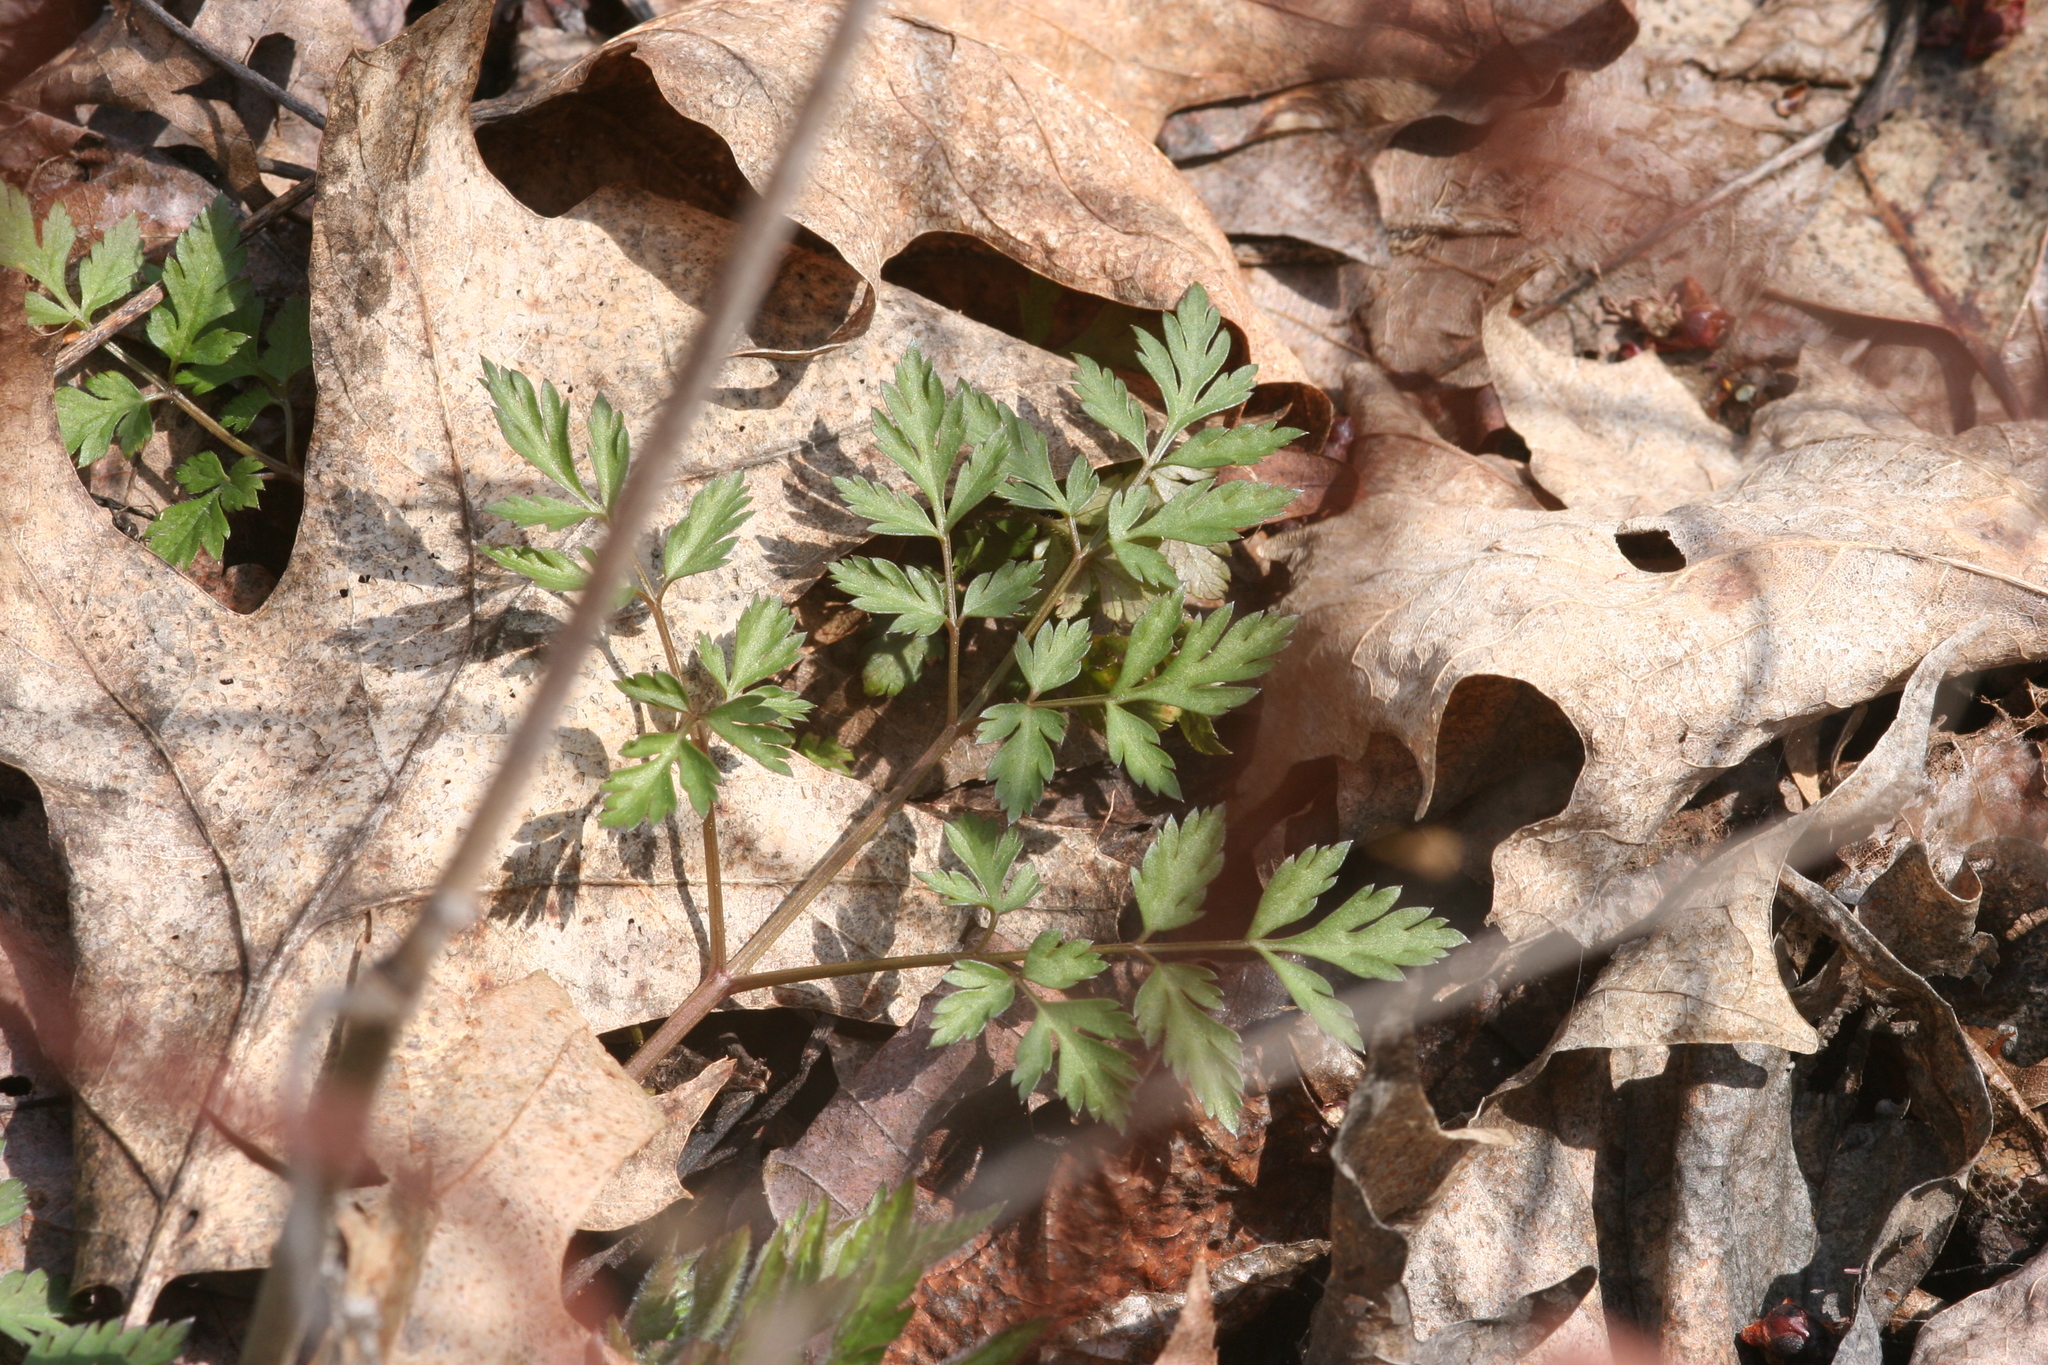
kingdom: Plantae
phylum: Tracheophyta
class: Magnoliopsida
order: Apiales
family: Apiaceae
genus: Osmorhiza
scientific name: Osmorhiza claytonii
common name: Hairy sweet cicely
